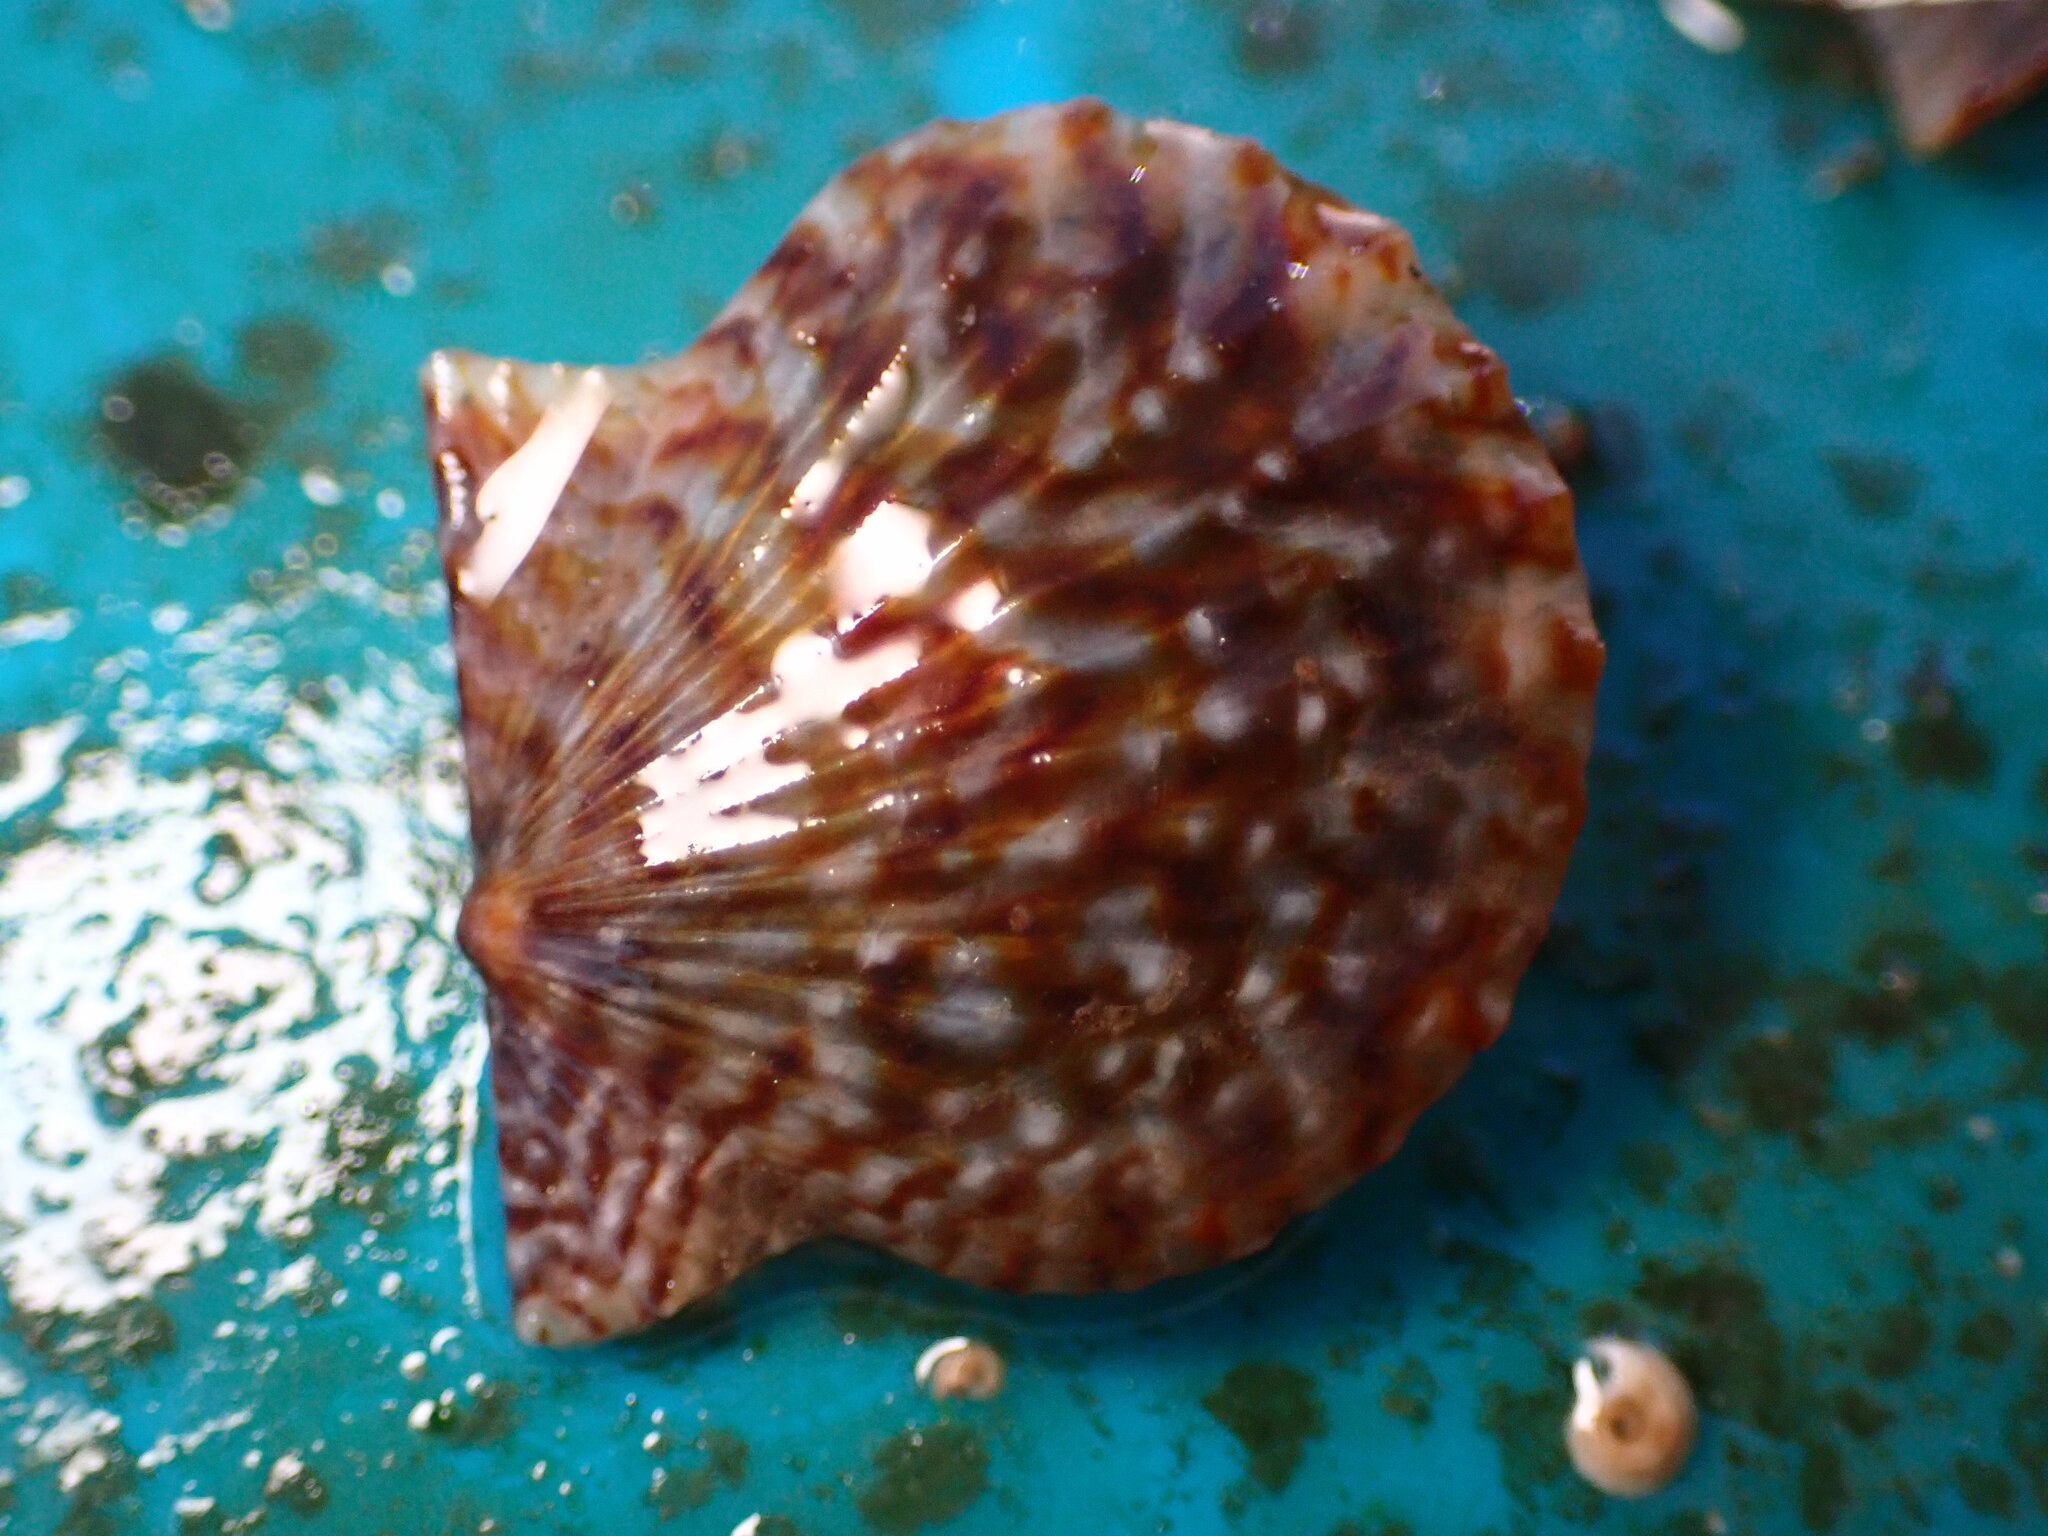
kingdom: Animalia
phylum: Mollusca
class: Bivalvia
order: Pectinida
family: Pectinidae
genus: Leptopecten
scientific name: Leptopecten latiauratus
